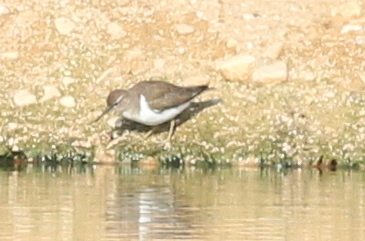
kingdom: Animalia
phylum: Chordata
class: Aves
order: Charadriiformes
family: Scolopacidae
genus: Actitis
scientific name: Actitis hypoleucos
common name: Common sandpiper
